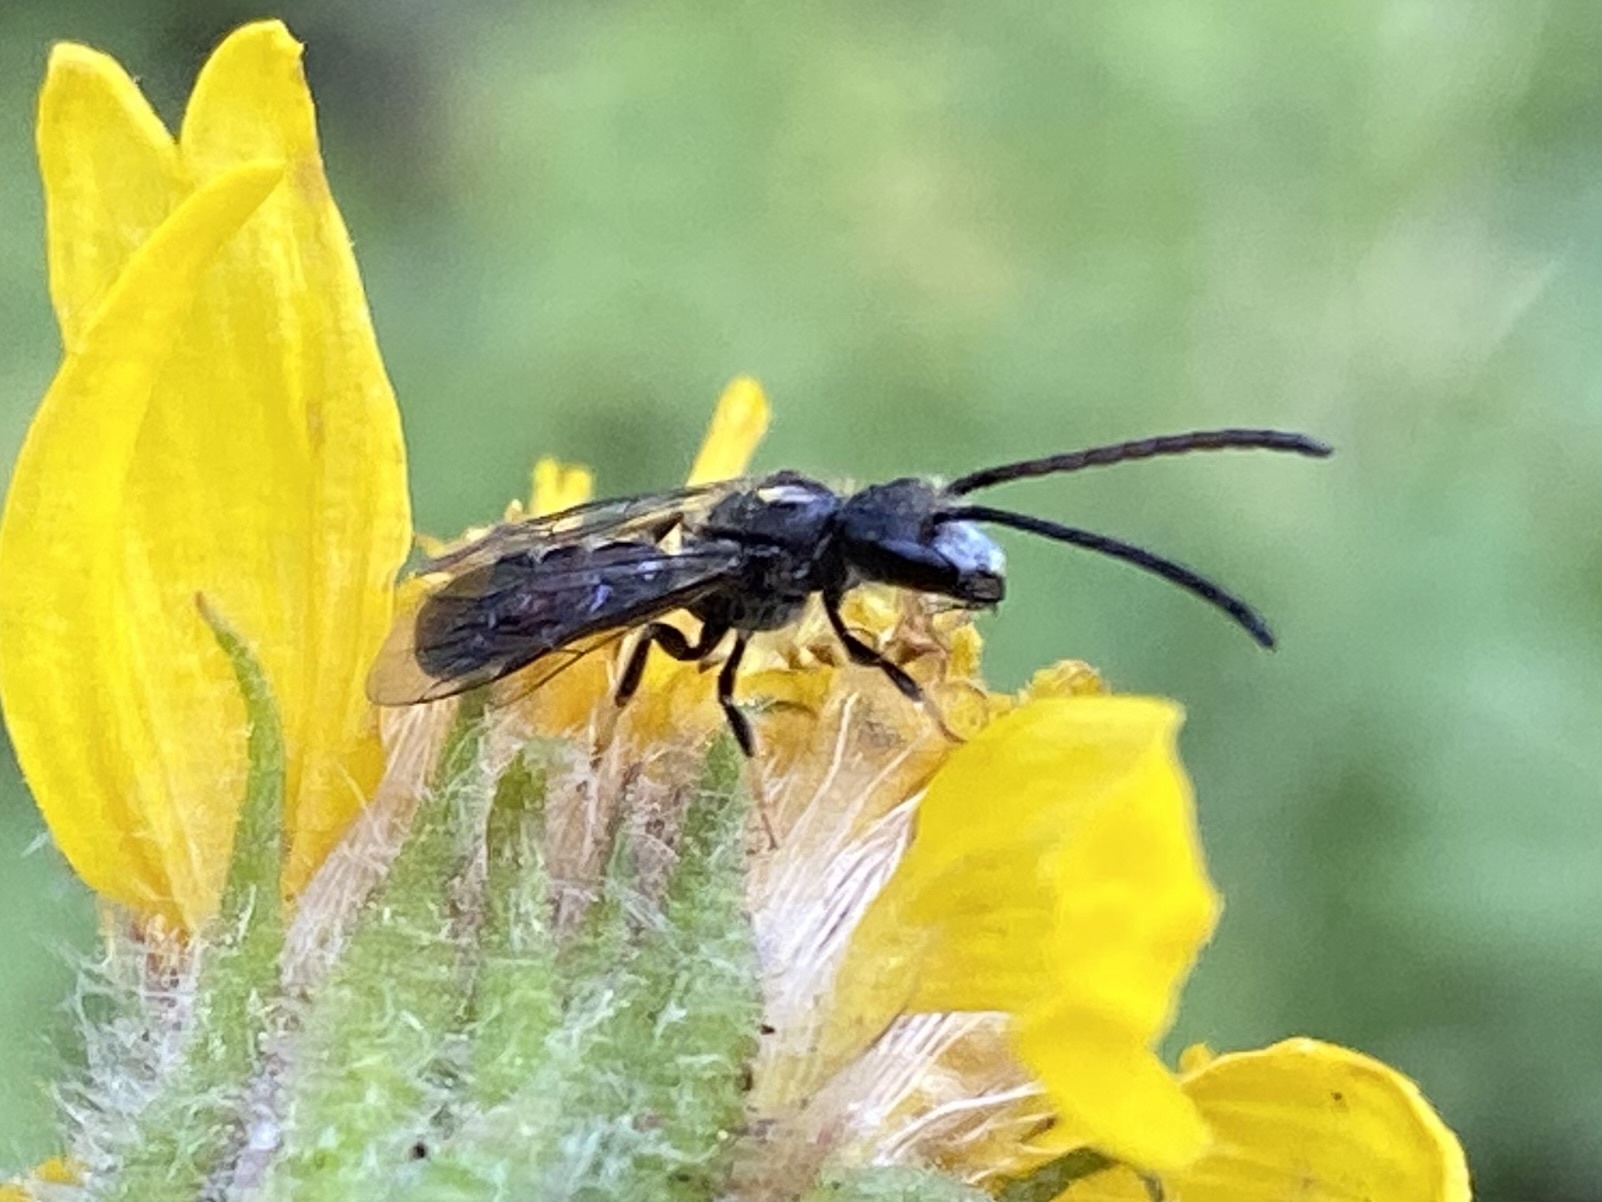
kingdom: Animalia
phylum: Arthropoda
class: Insecta
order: Hymenoptera
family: Halictidae
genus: Lasioglossum
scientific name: Lasioglossum
